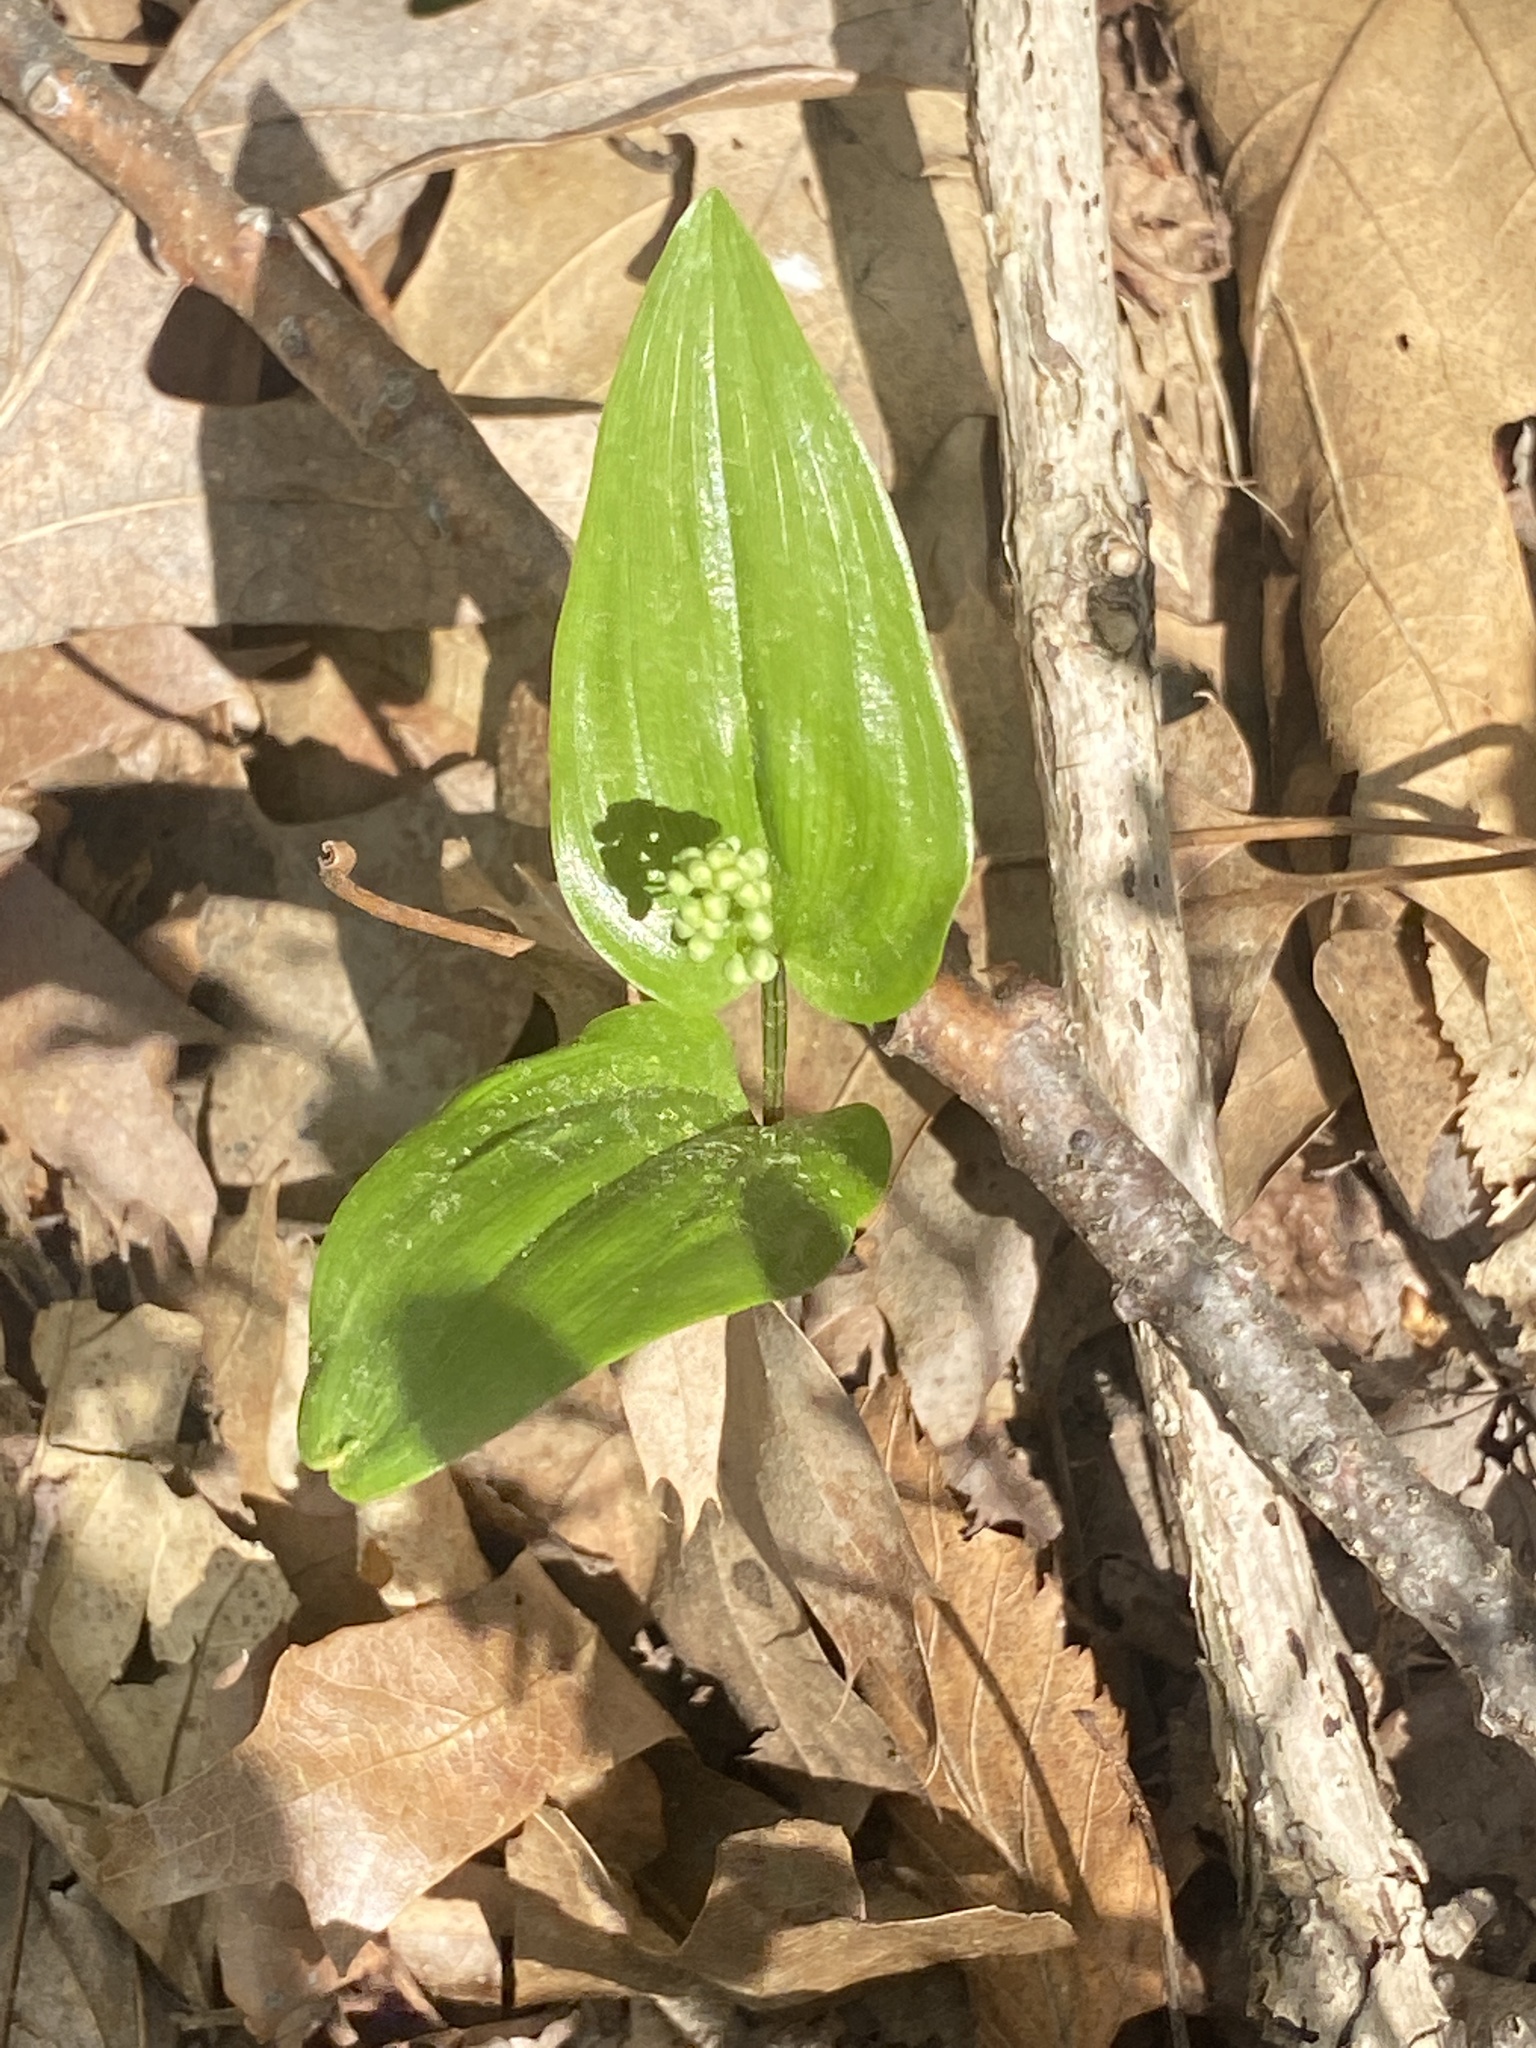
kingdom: Plantae
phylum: Tracheophyta
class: Liliopsida
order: Asparagales
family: Asparagaceae
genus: Maianthemum
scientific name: Maianthemum canadense
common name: False lily-of-the-valley
